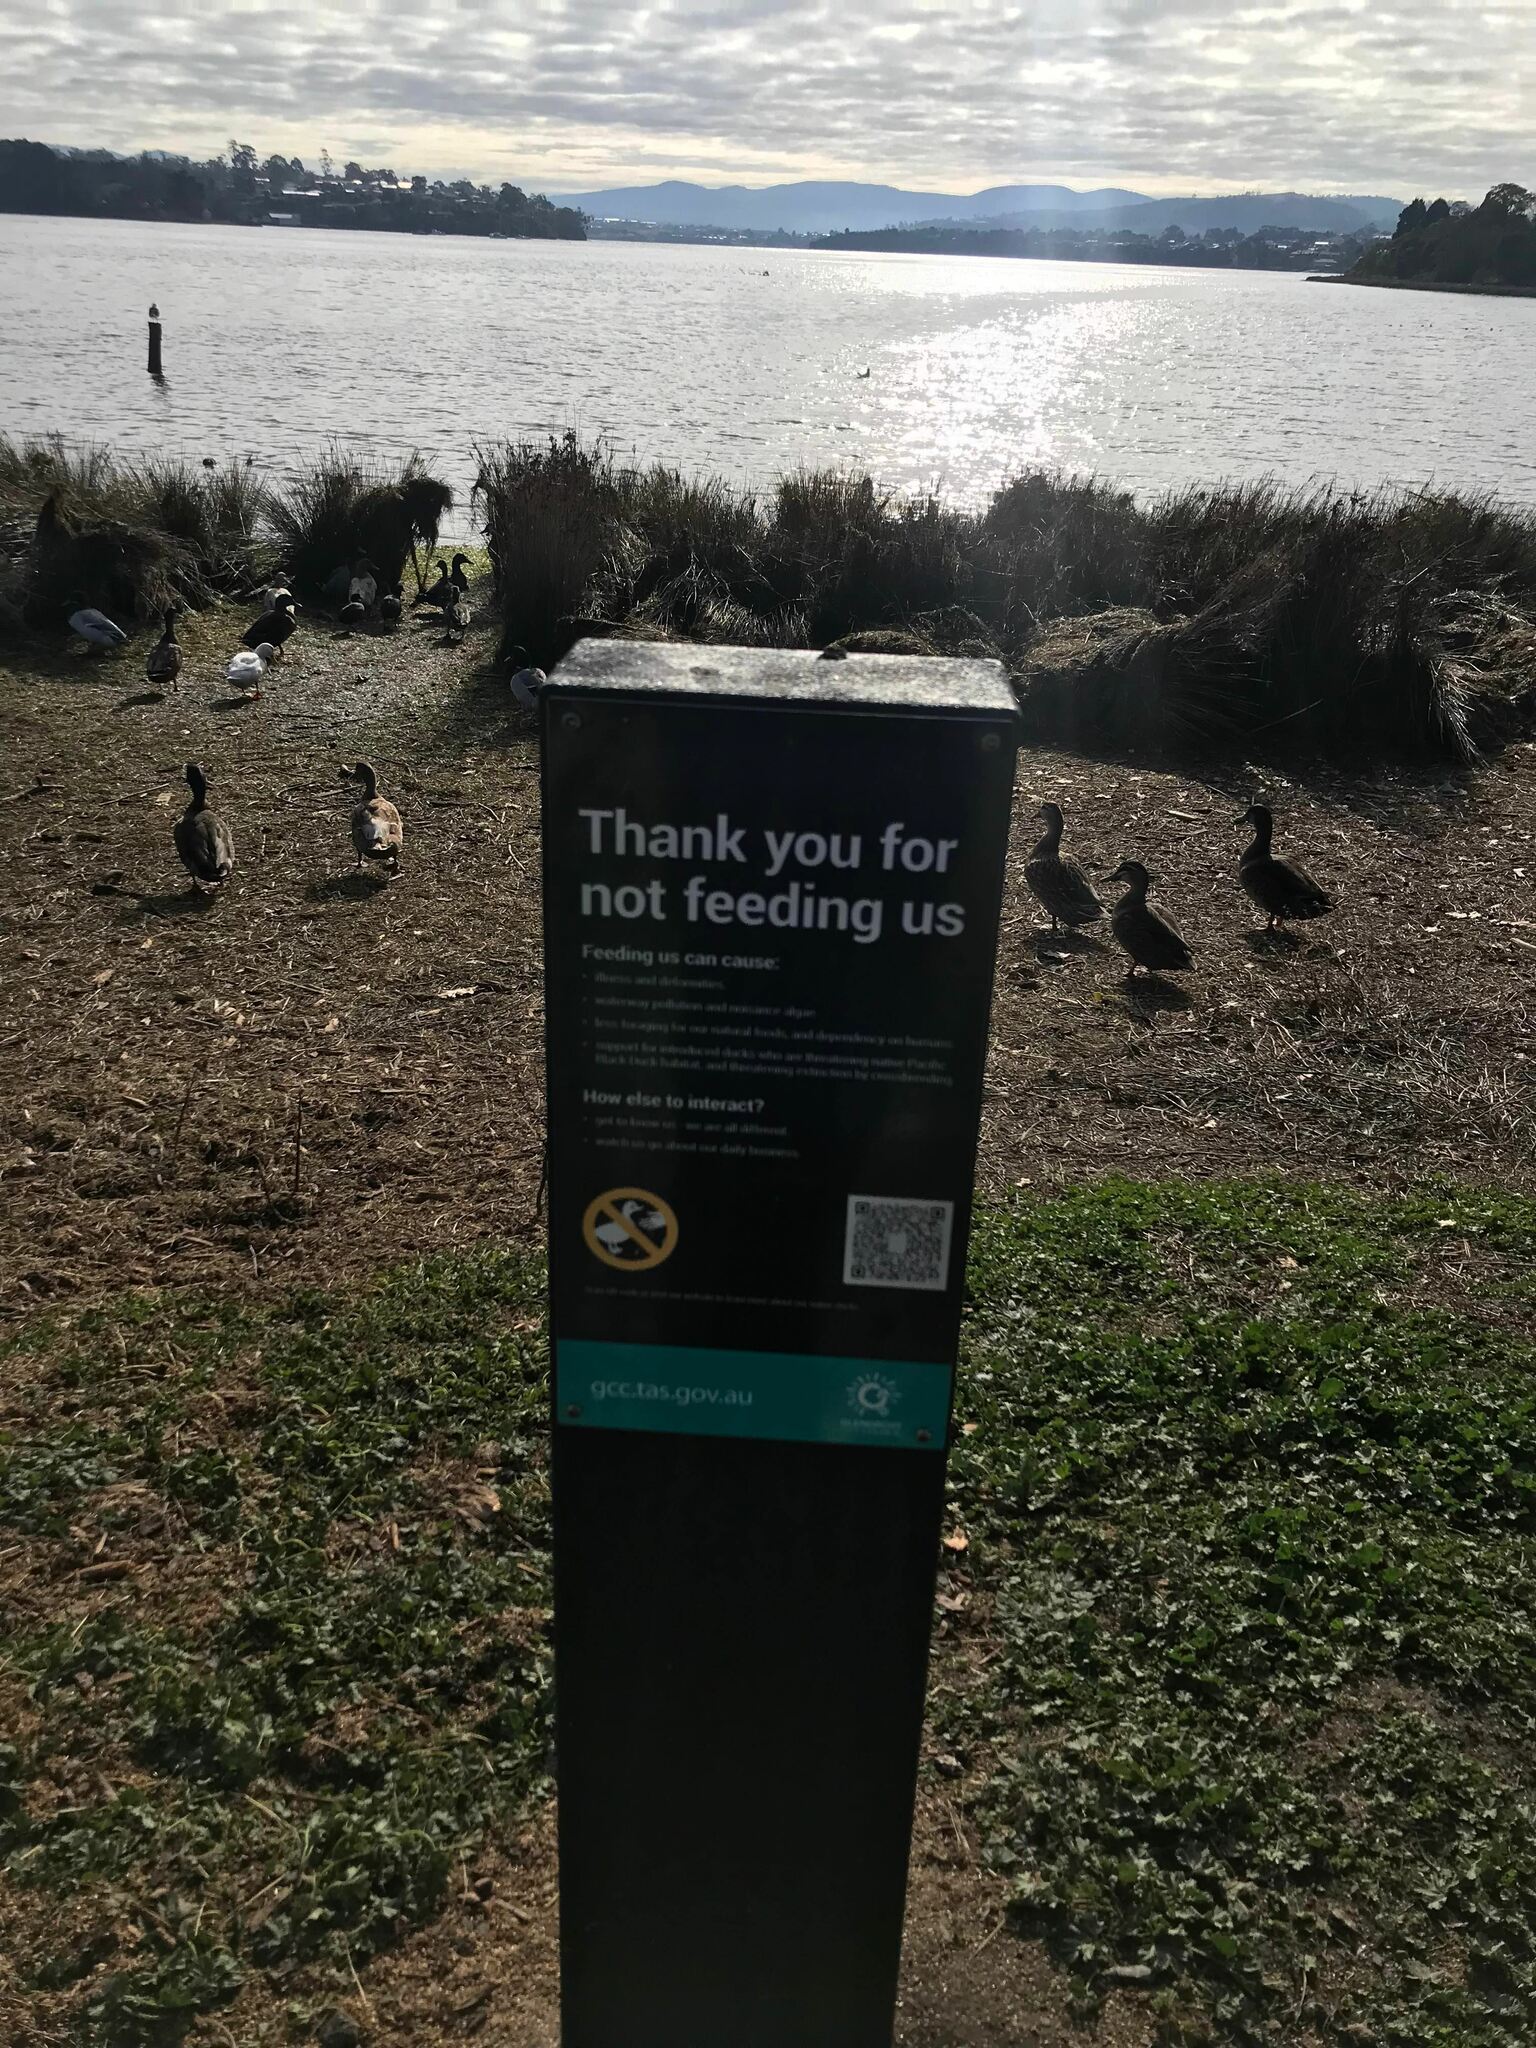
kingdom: Animalia
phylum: Chordata
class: Aves
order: Anseriformes
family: Anatidae
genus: Anas
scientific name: Anas platyrhynchos
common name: Mallard
